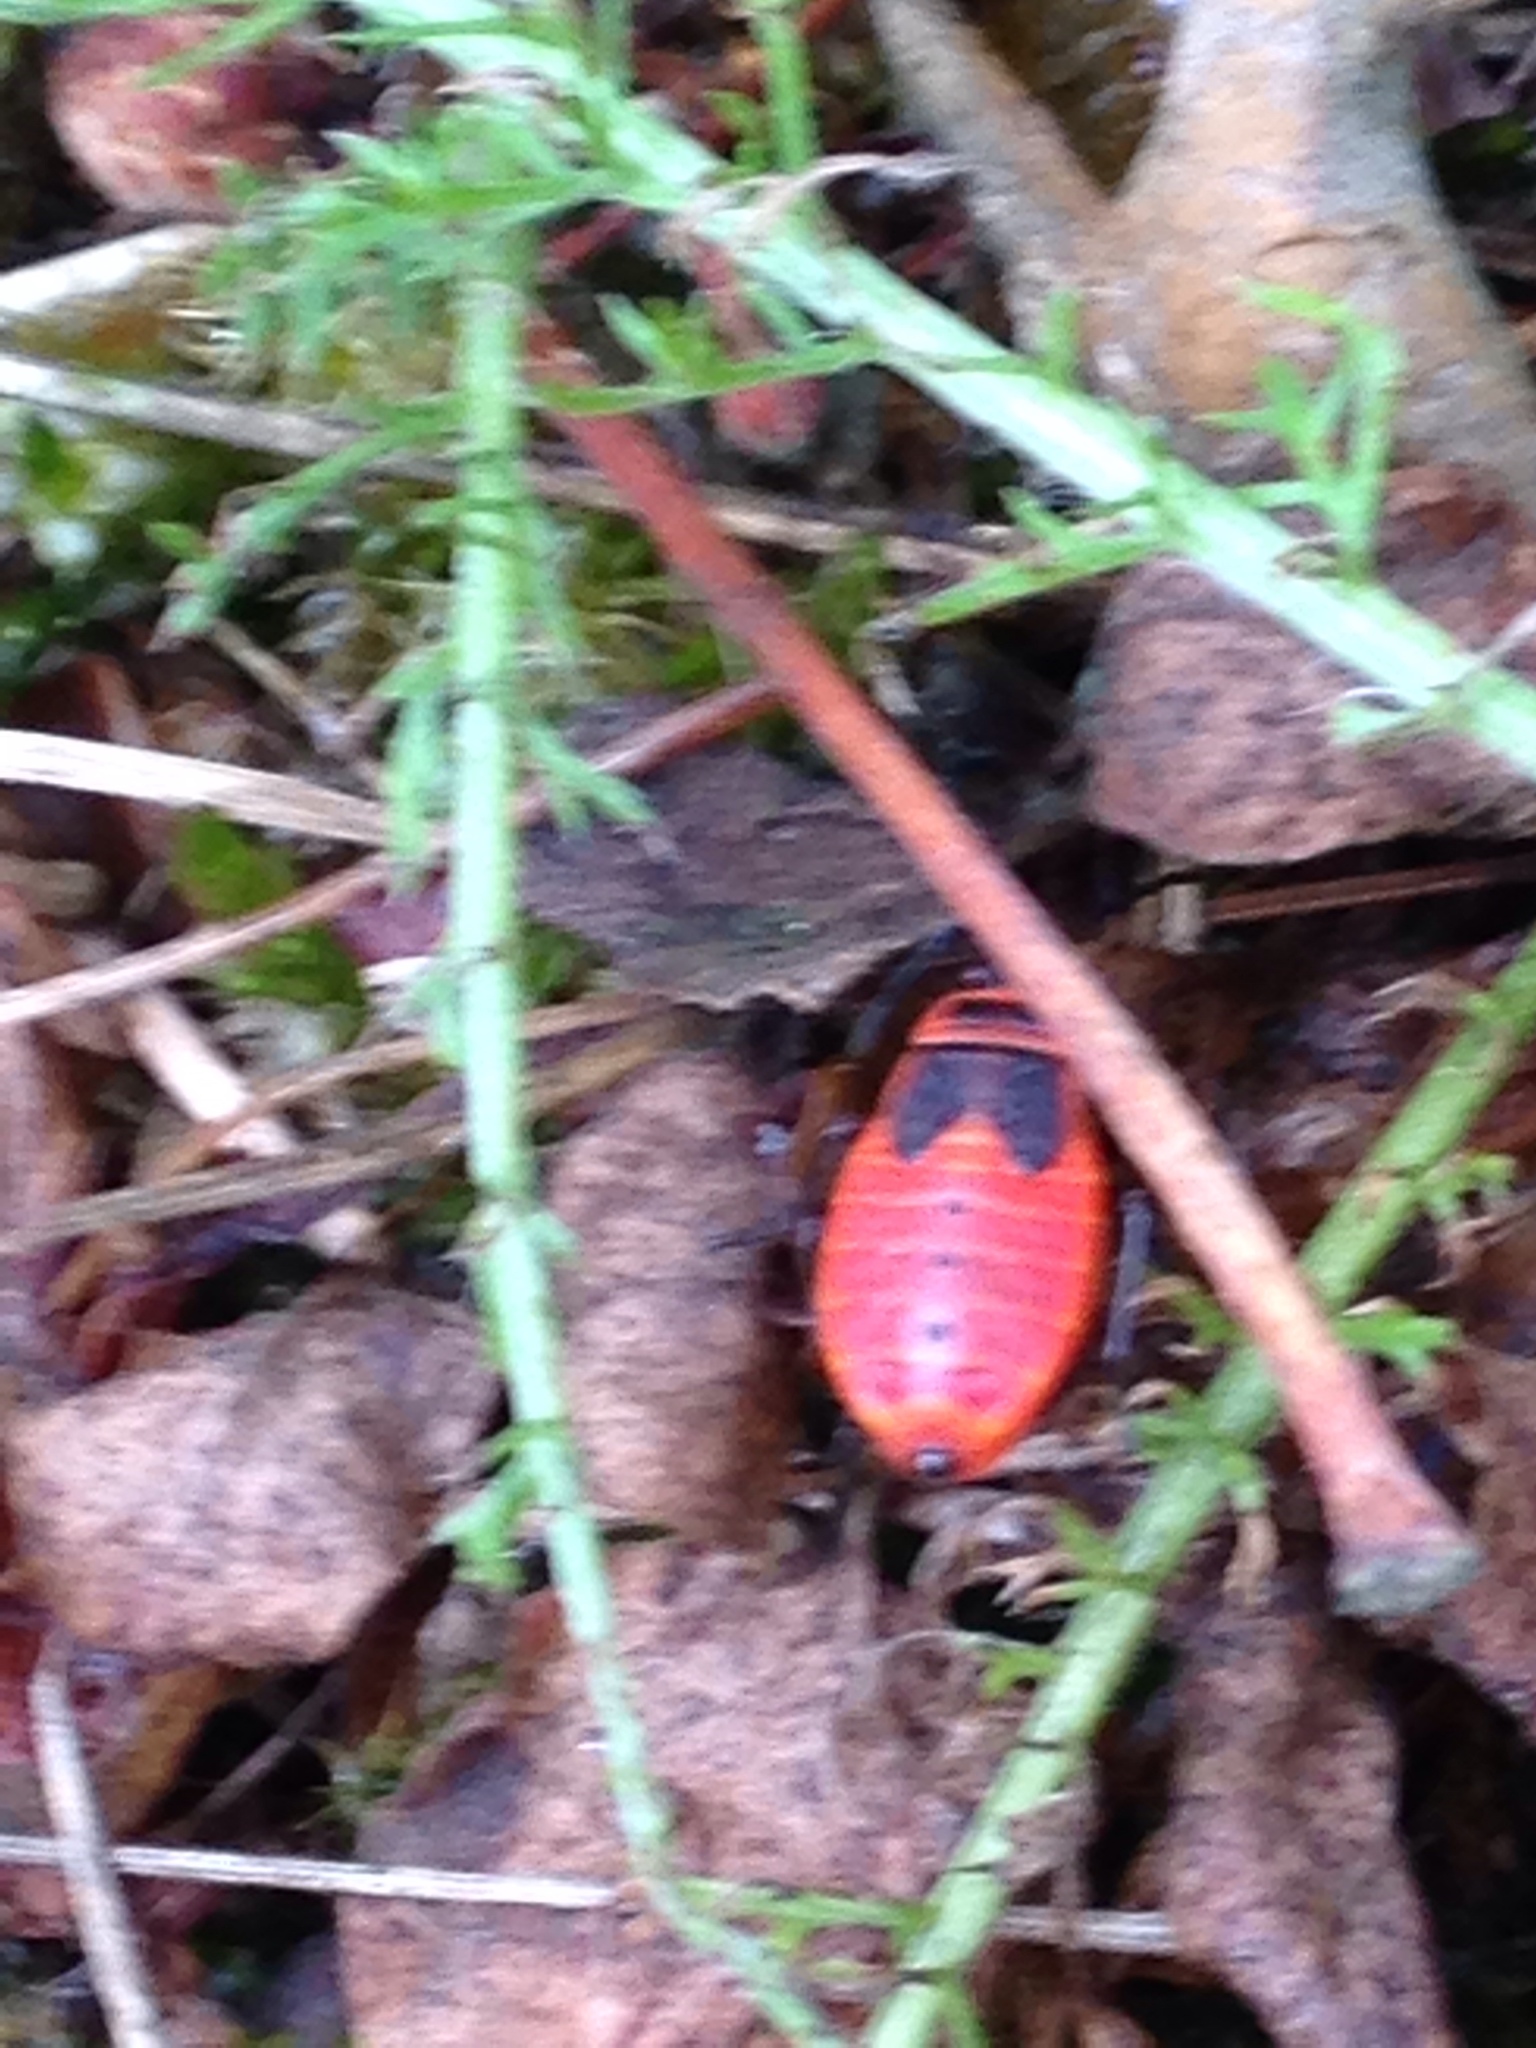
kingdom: Animalia
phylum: Arthropoda
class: Insecta
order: Hemiptera
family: Pyrrhocoridae
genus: Pyrrhocoris
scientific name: Pyrrhocoris apterus
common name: Firebug
